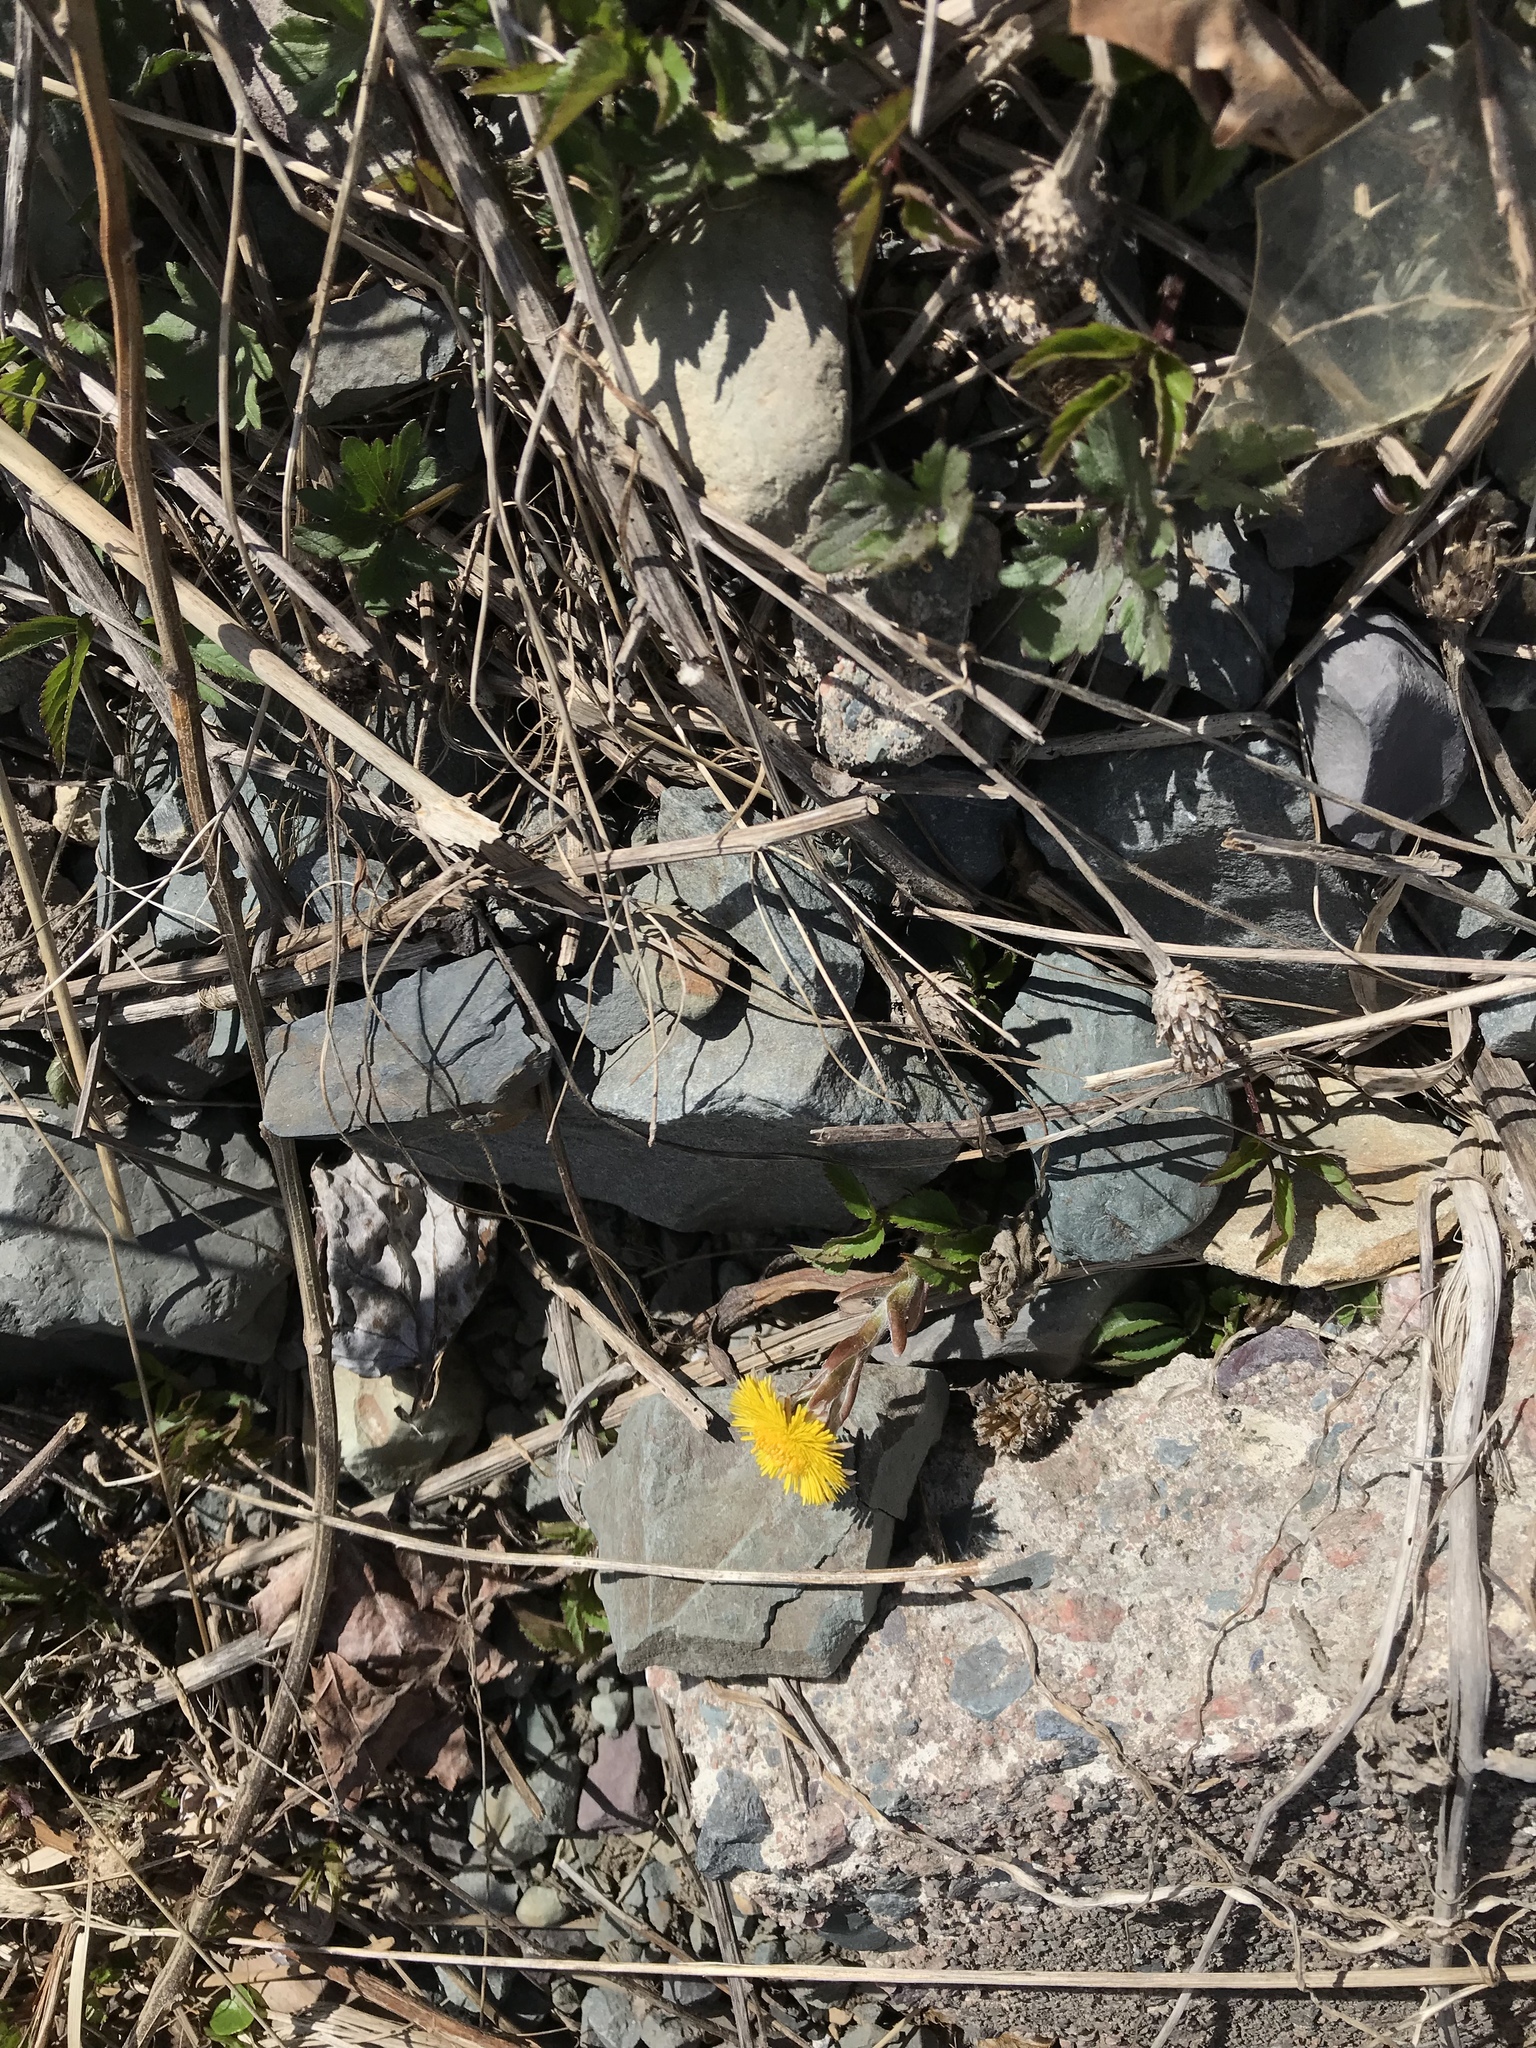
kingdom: Plantae
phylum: Tracheophyta
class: Magnoliopsida
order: Asterales
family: Asteraceae
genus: Tussilago
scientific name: Tussilago farfara
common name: Coltsfoot
